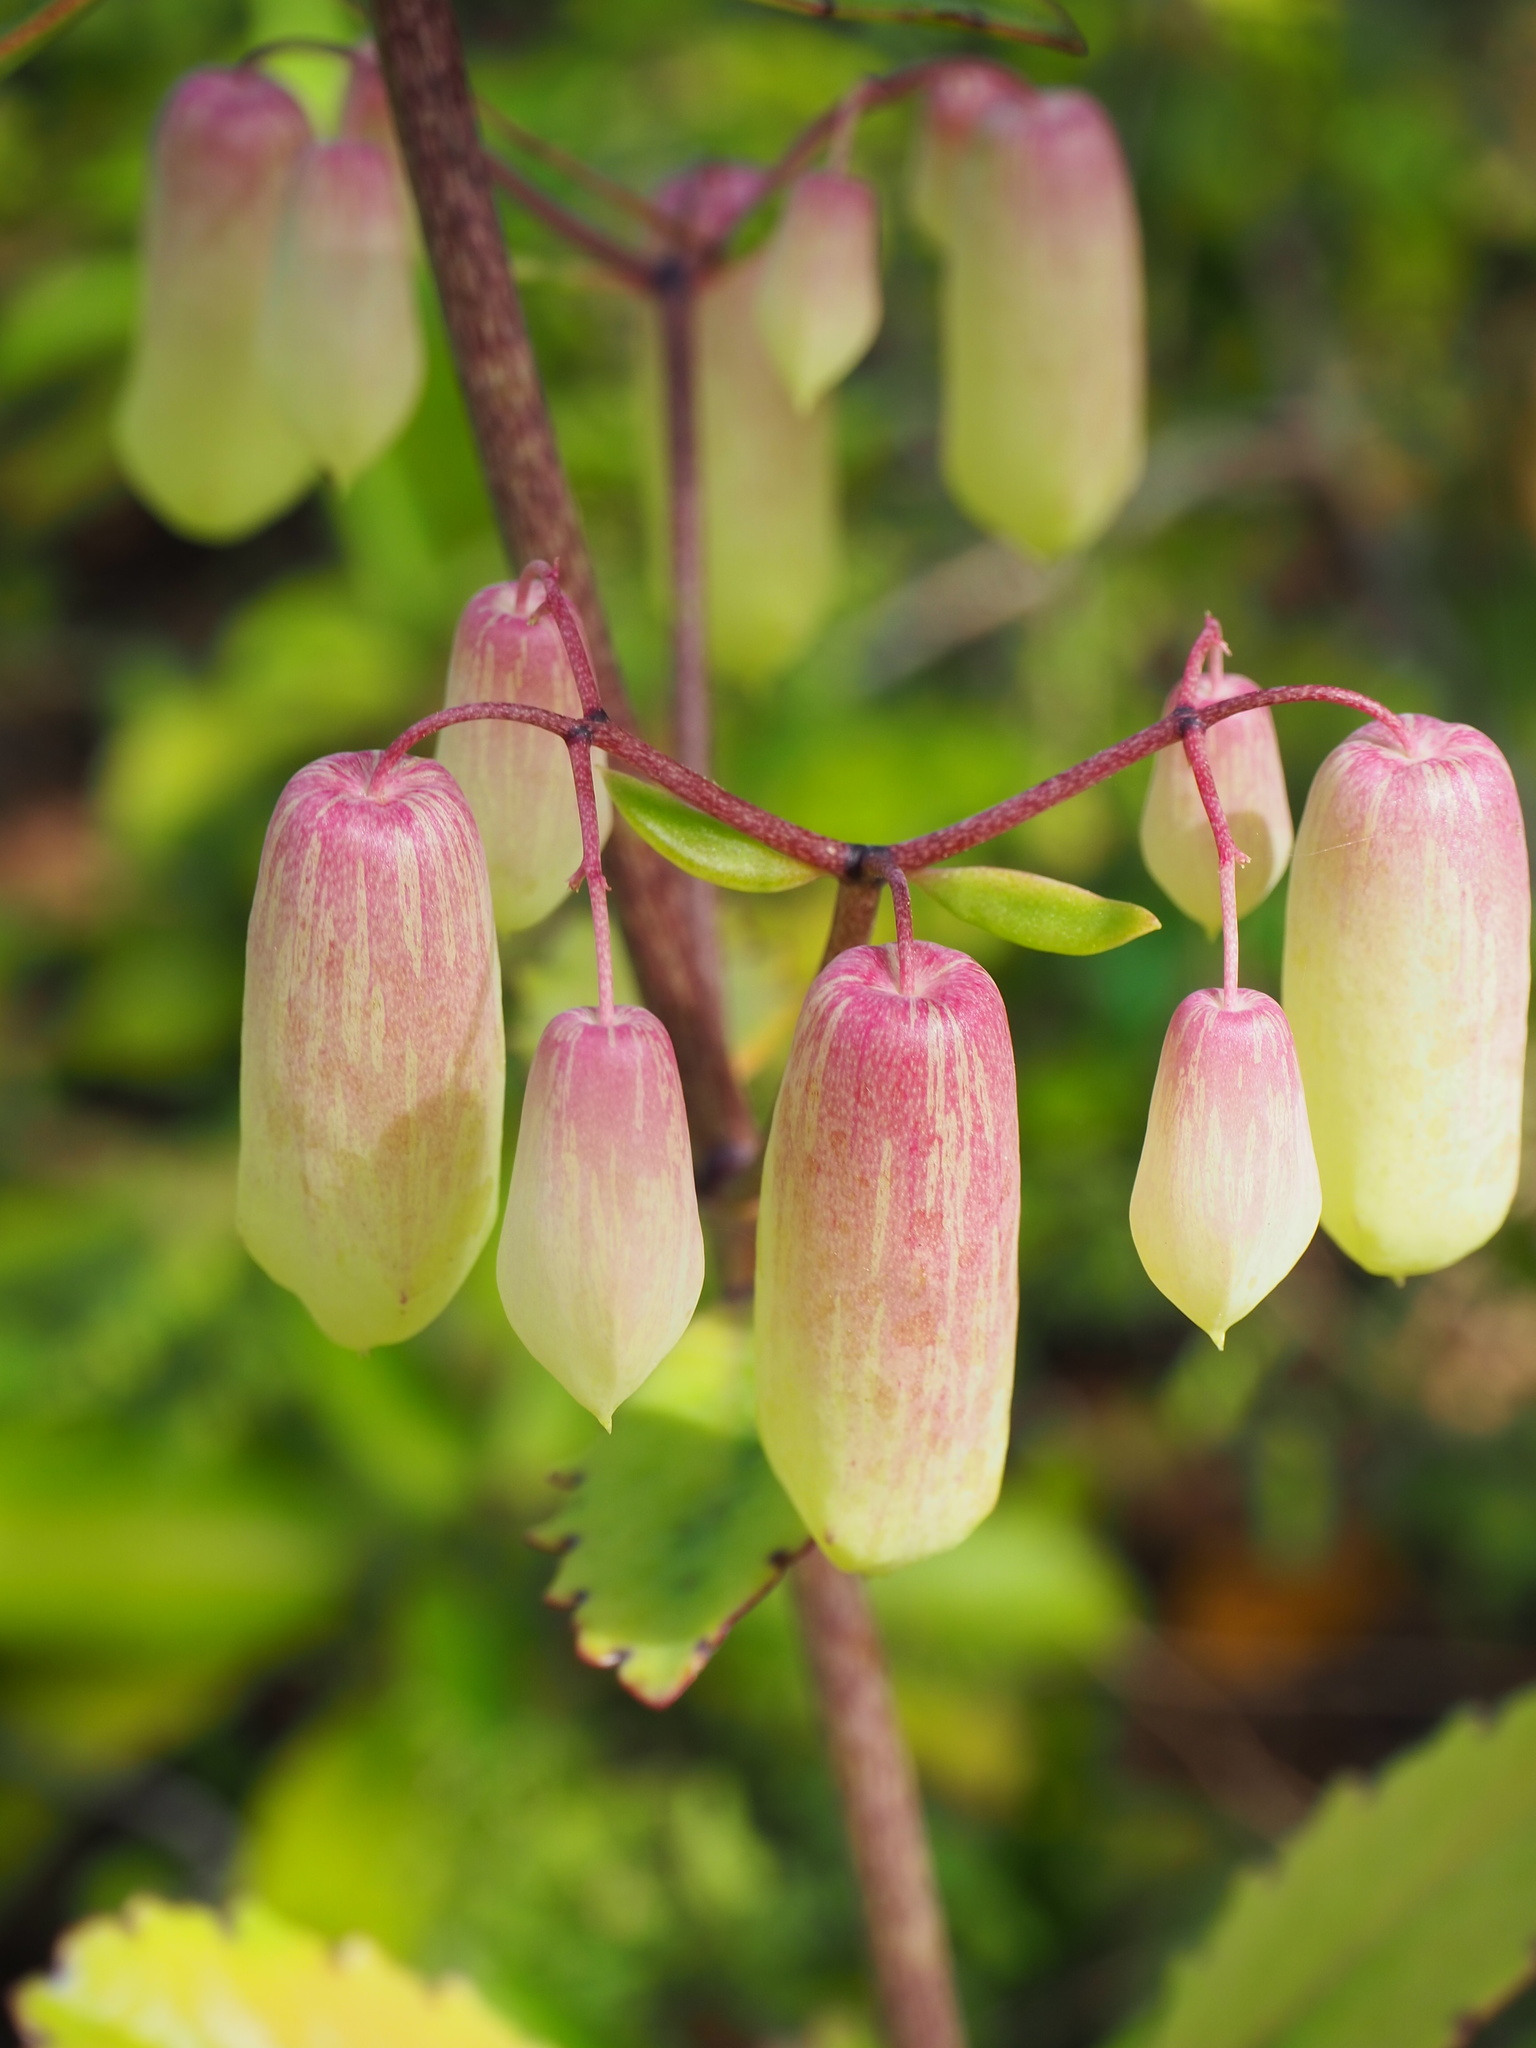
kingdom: Plantae
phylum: Tracheophyta
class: Magnoliopsida
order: Saxifragales
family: Crassulaceae
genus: Kalanchoe
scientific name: Kalanchoe pinnata
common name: Cathedral bells
